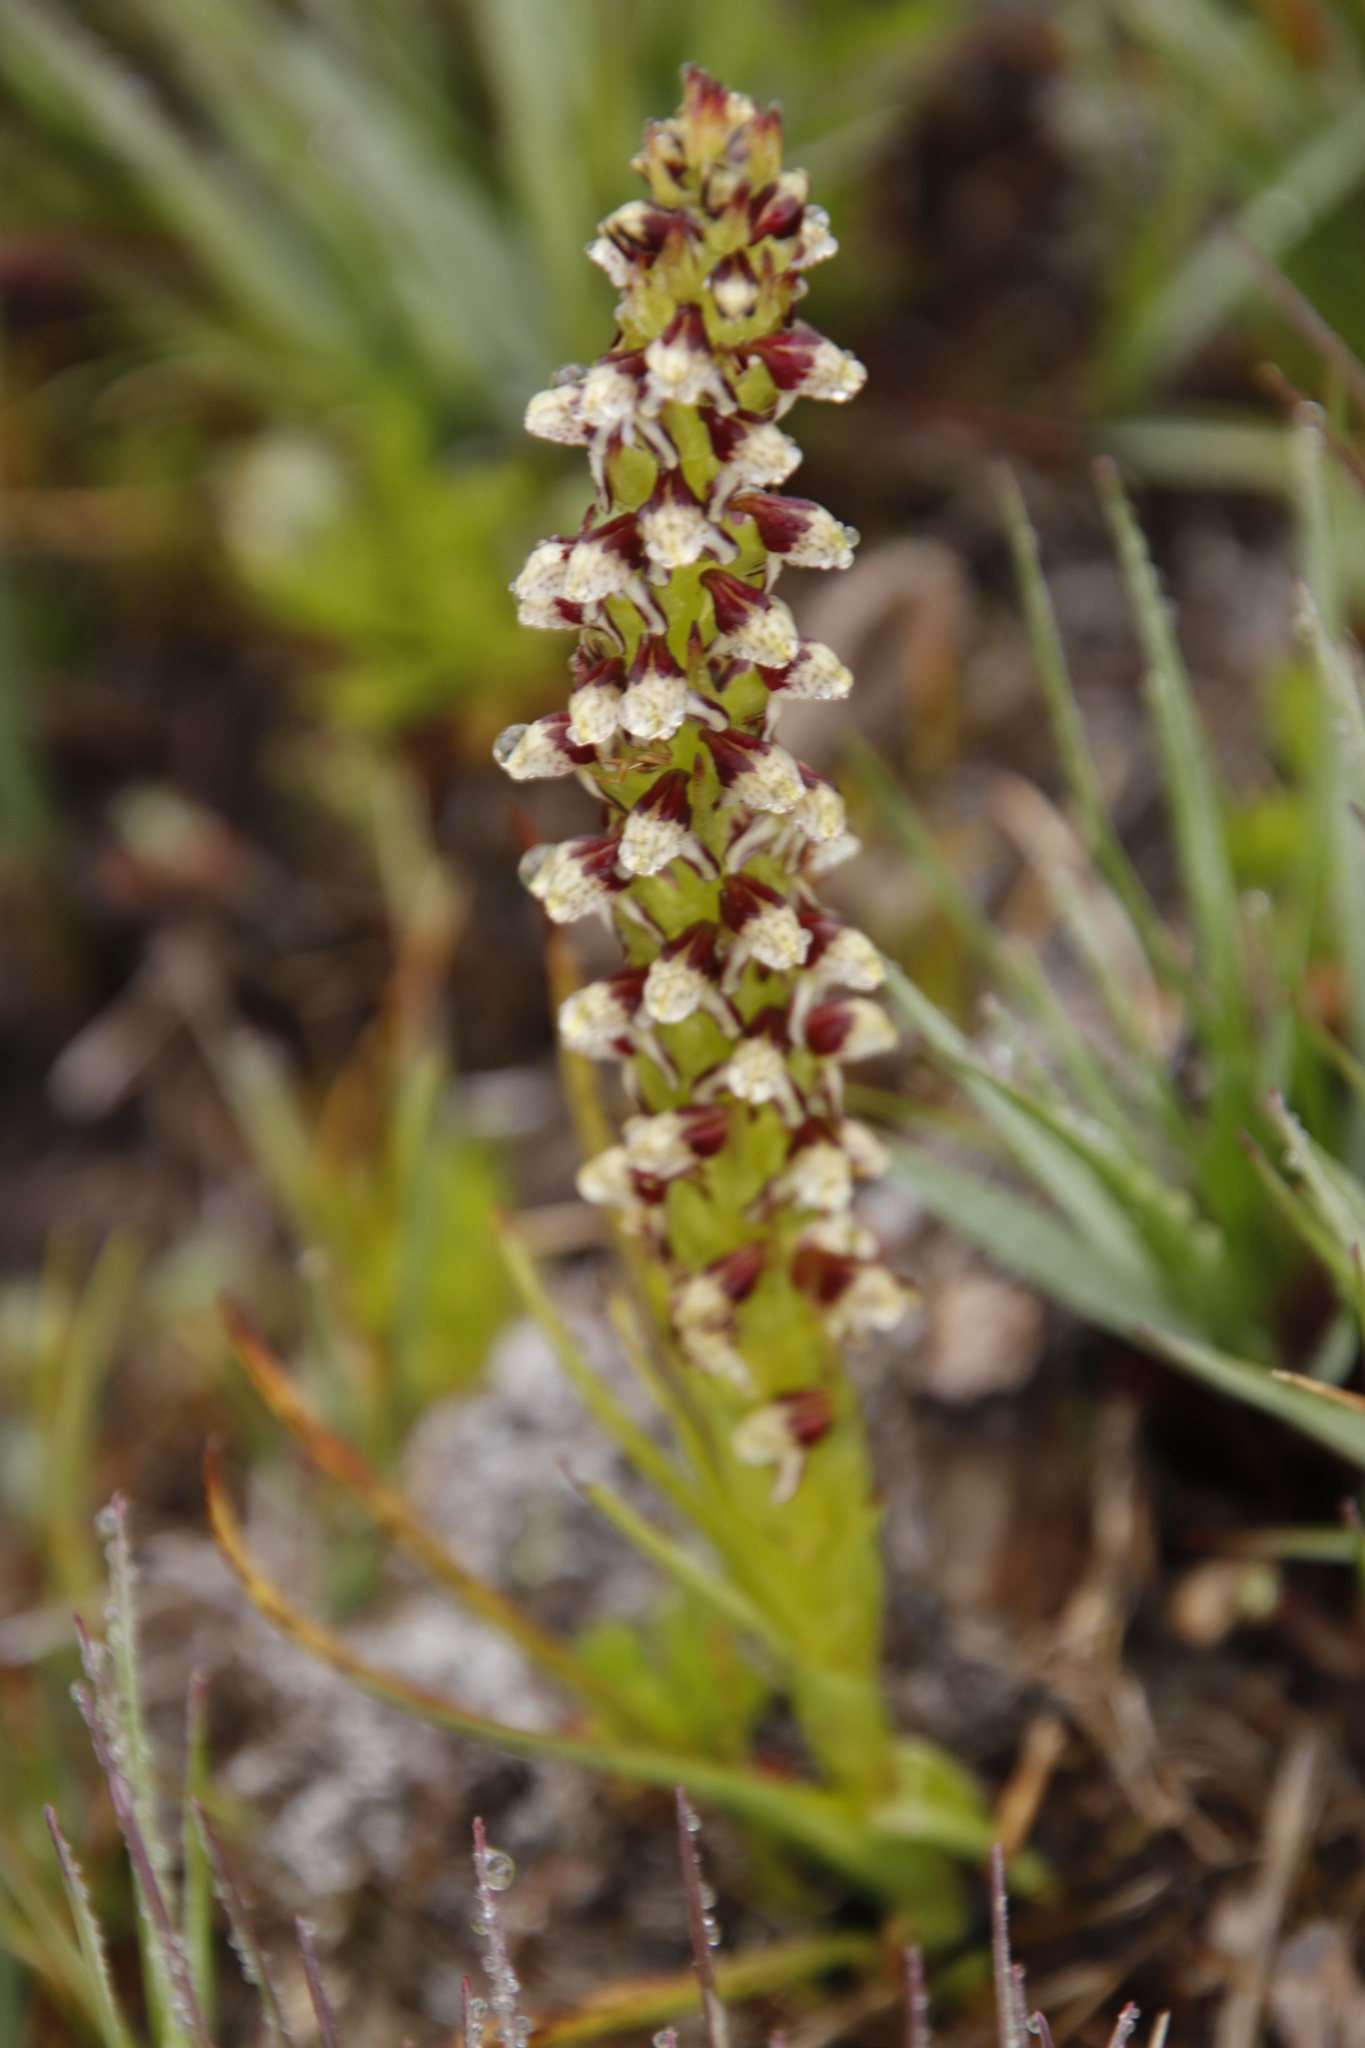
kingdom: Plantae
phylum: Tracheophyta
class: Liliopsida
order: Asparagales
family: Orchidaceae
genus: Disa
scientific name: Disa obtusa
